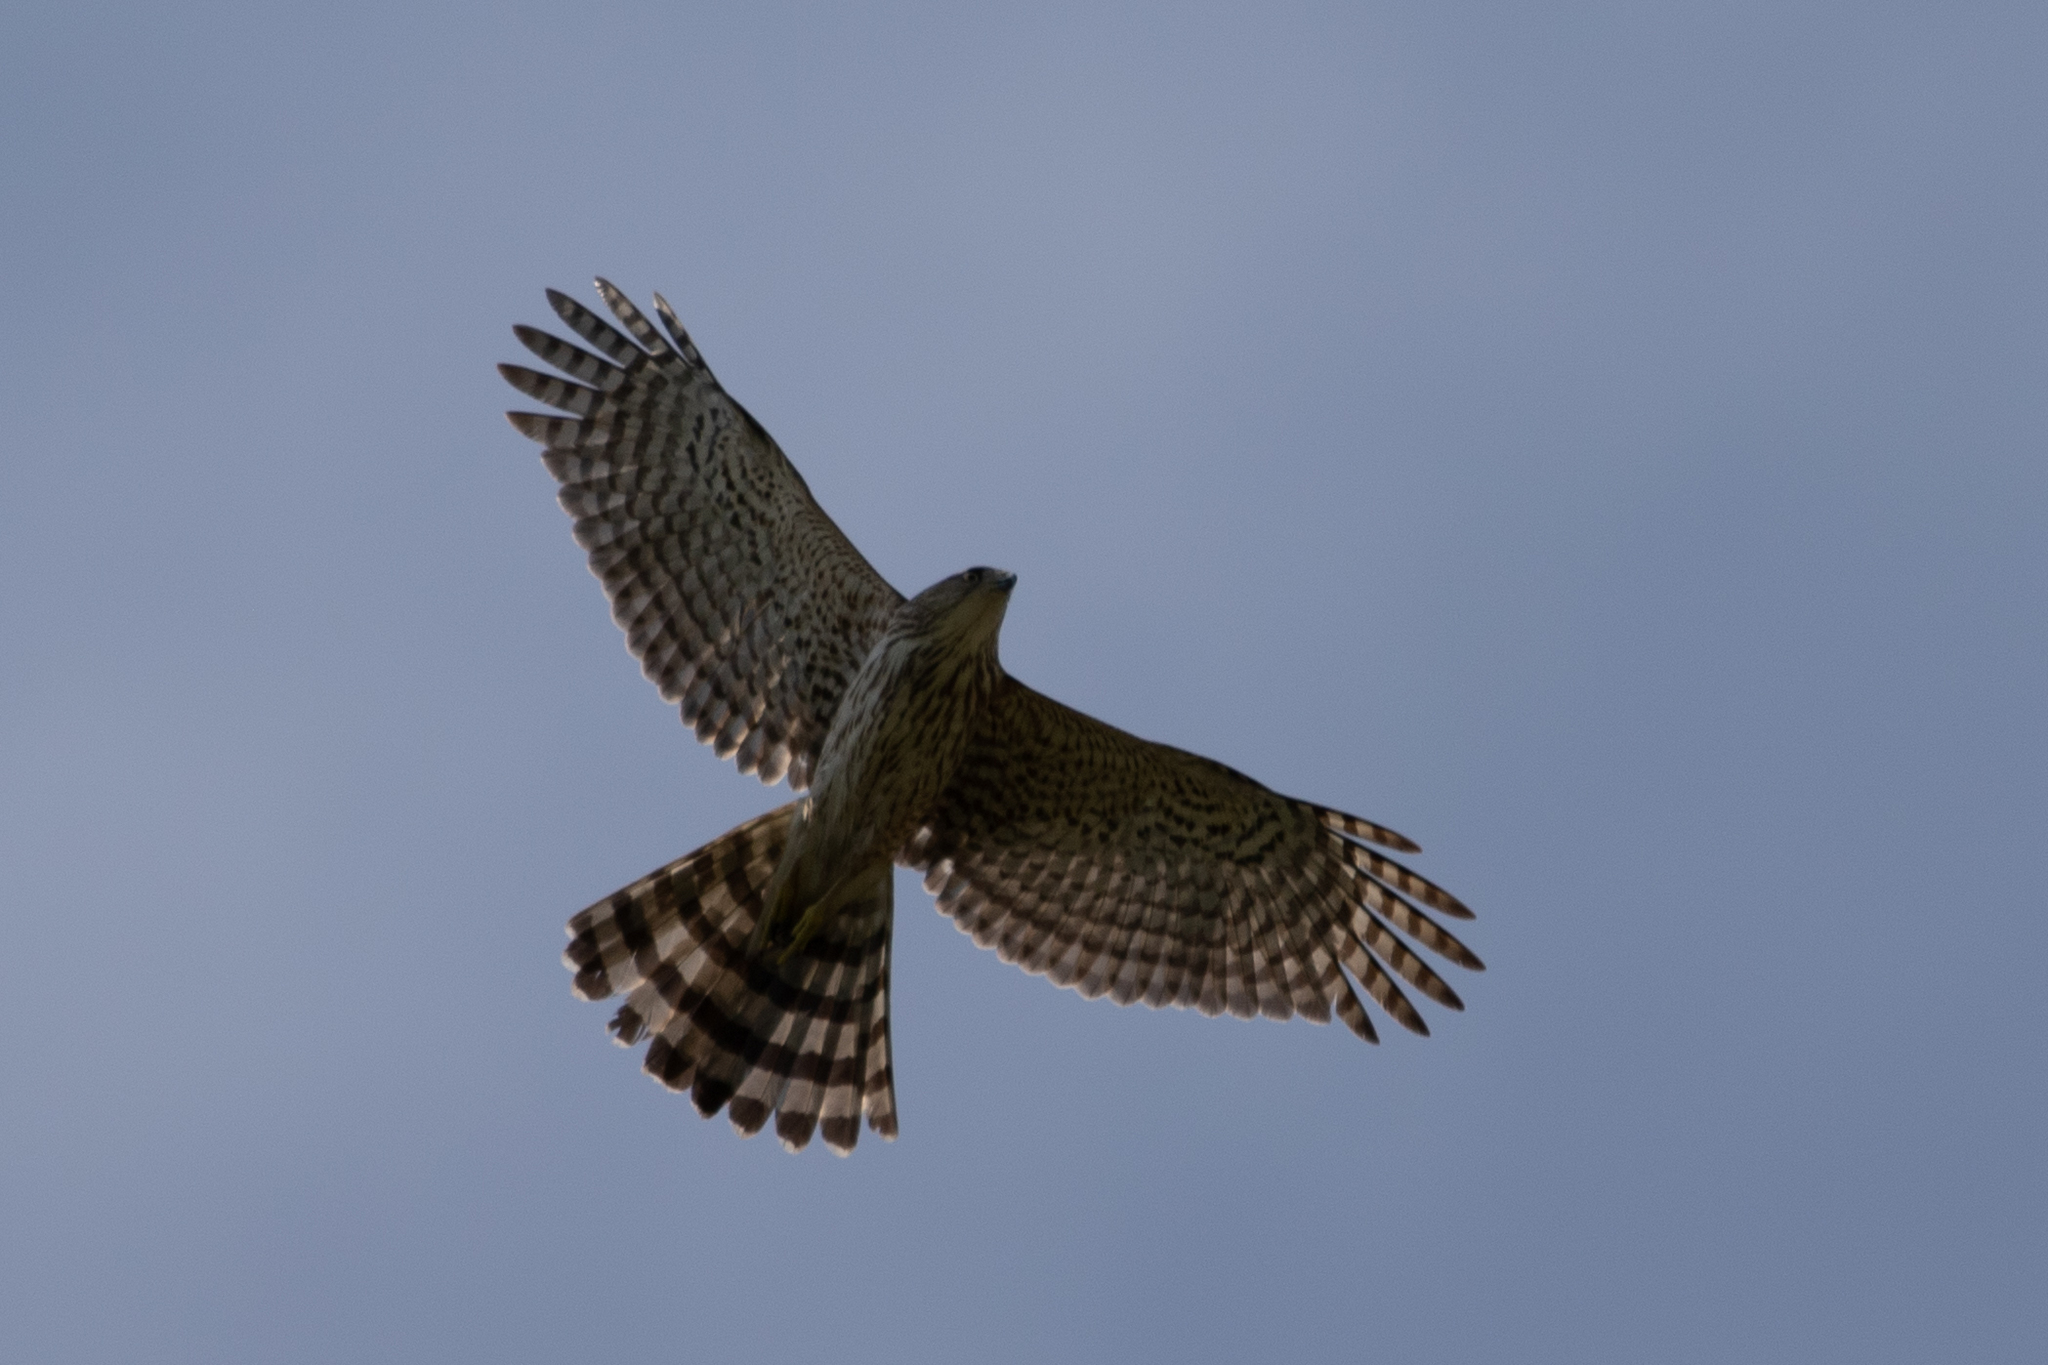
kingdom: Animalia
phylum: Chordata
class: Aves
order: Accipitriformes
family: Accipitridae
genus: Accipiter
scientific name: Accipiter cooperii
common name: Cooper's hawk
